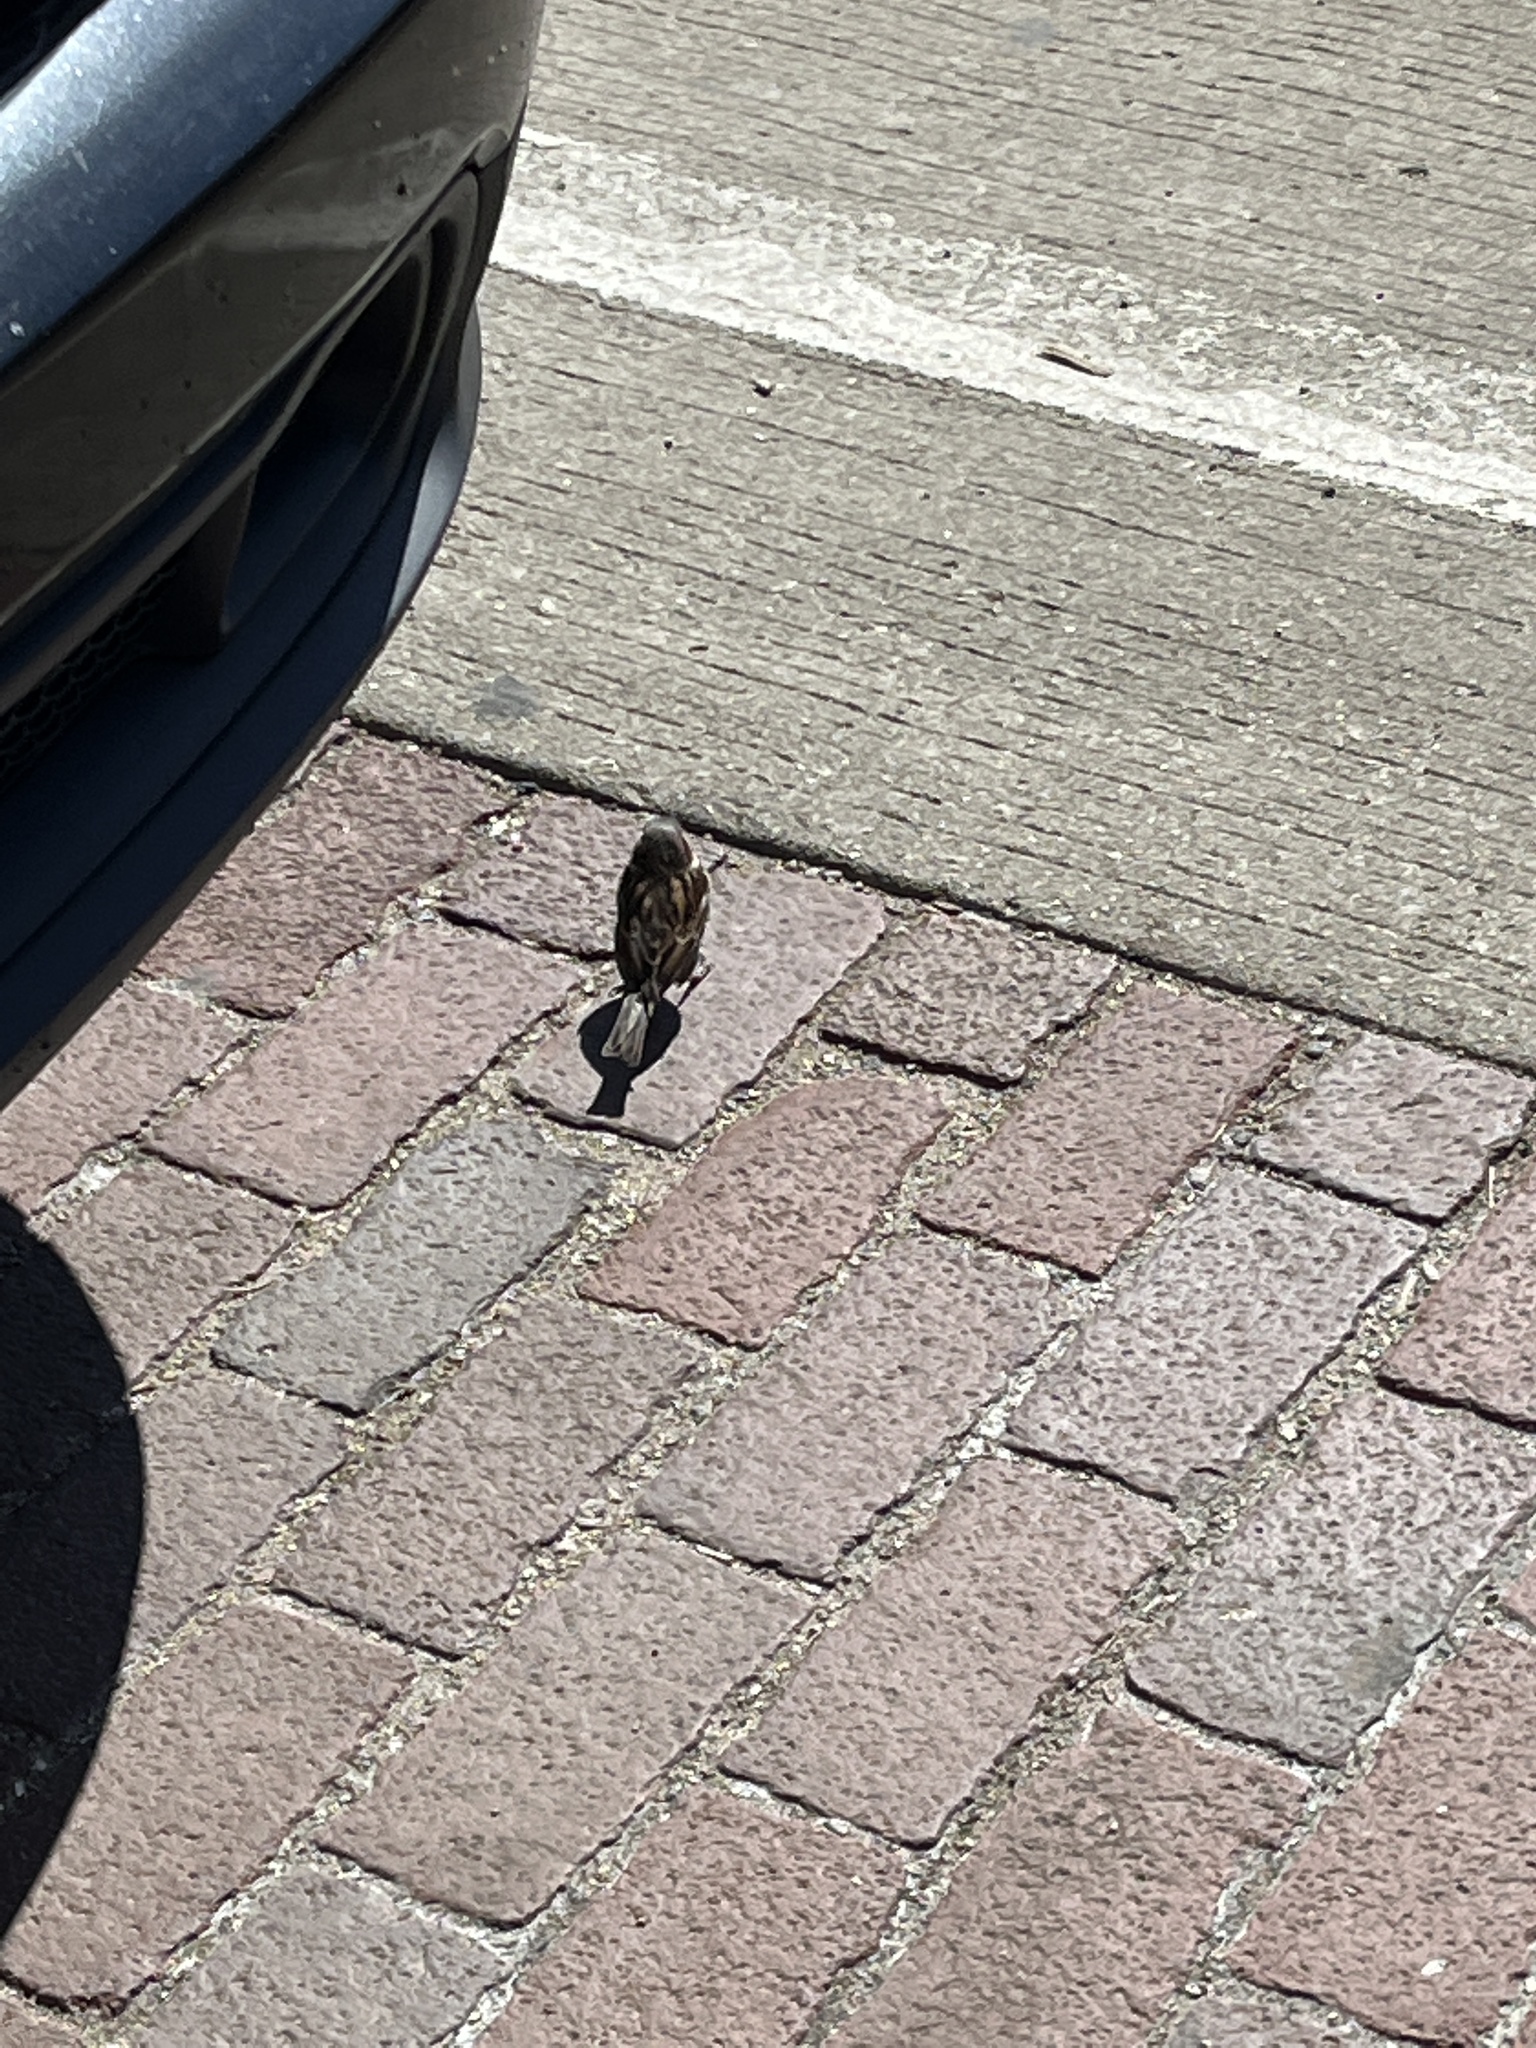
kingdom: Animalia
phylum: Chordata
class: Aves
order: Passeriformes
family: Passeridae
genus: Passer
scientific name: Passer domesticus
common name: House sparrow
